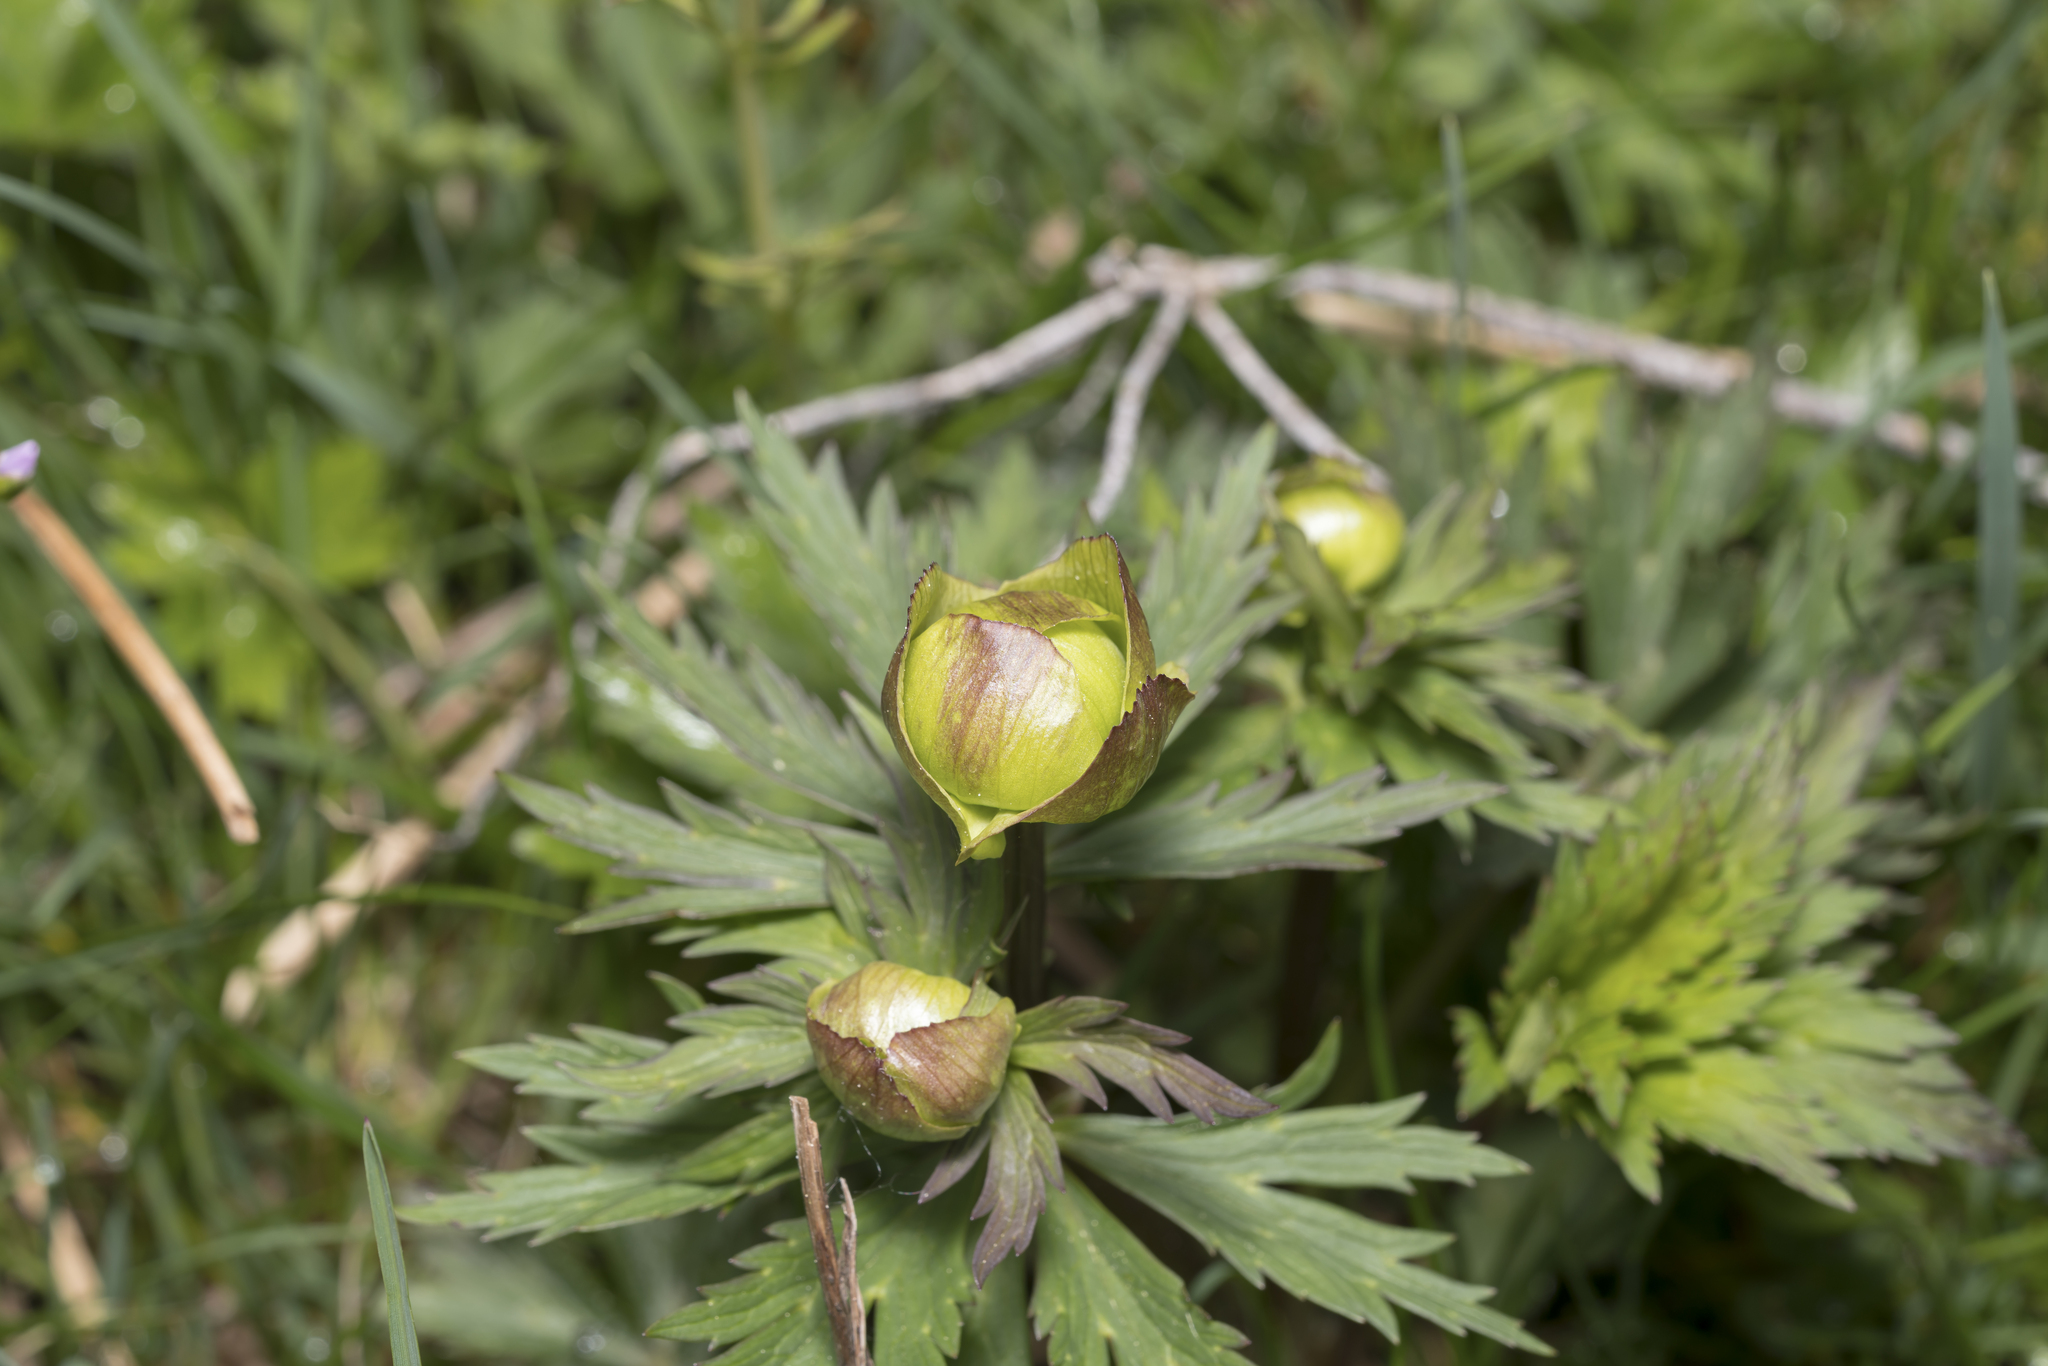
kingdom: Plantae
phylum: Tracheophyta
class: Magnoliopsida
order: Ranunculales
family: Ranunculaceae
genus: Trollius
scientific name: Trollius europaeus
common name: European globeflower
